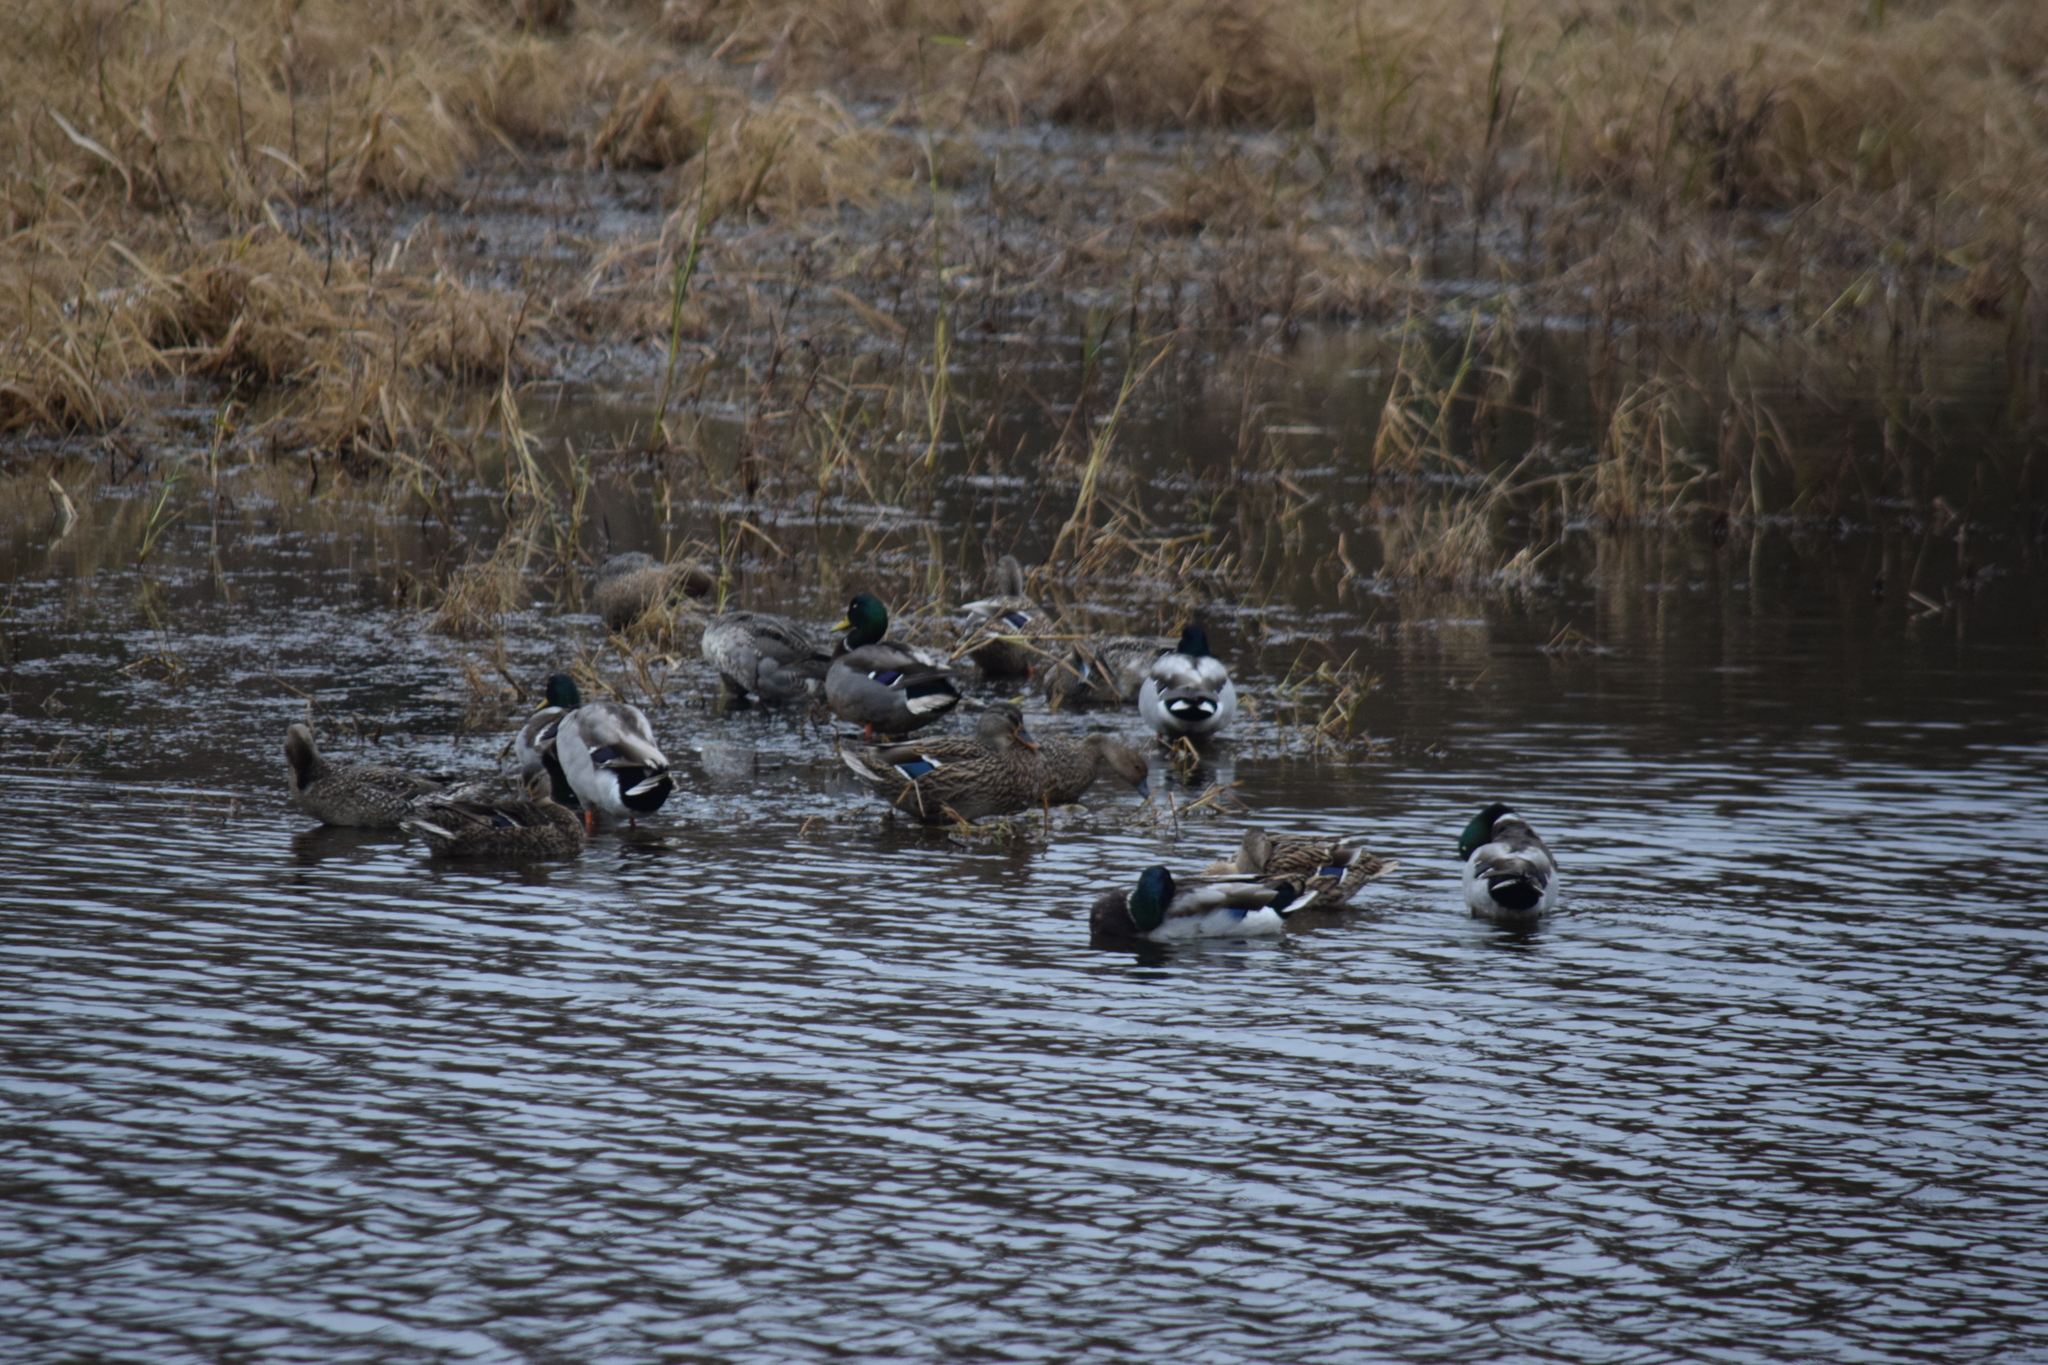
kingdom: Animalia
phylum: Chordata
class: Aves
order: Anseriformes
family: Anatidae
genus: Anas
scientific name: Anas platyrhynchos
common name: Mallard
